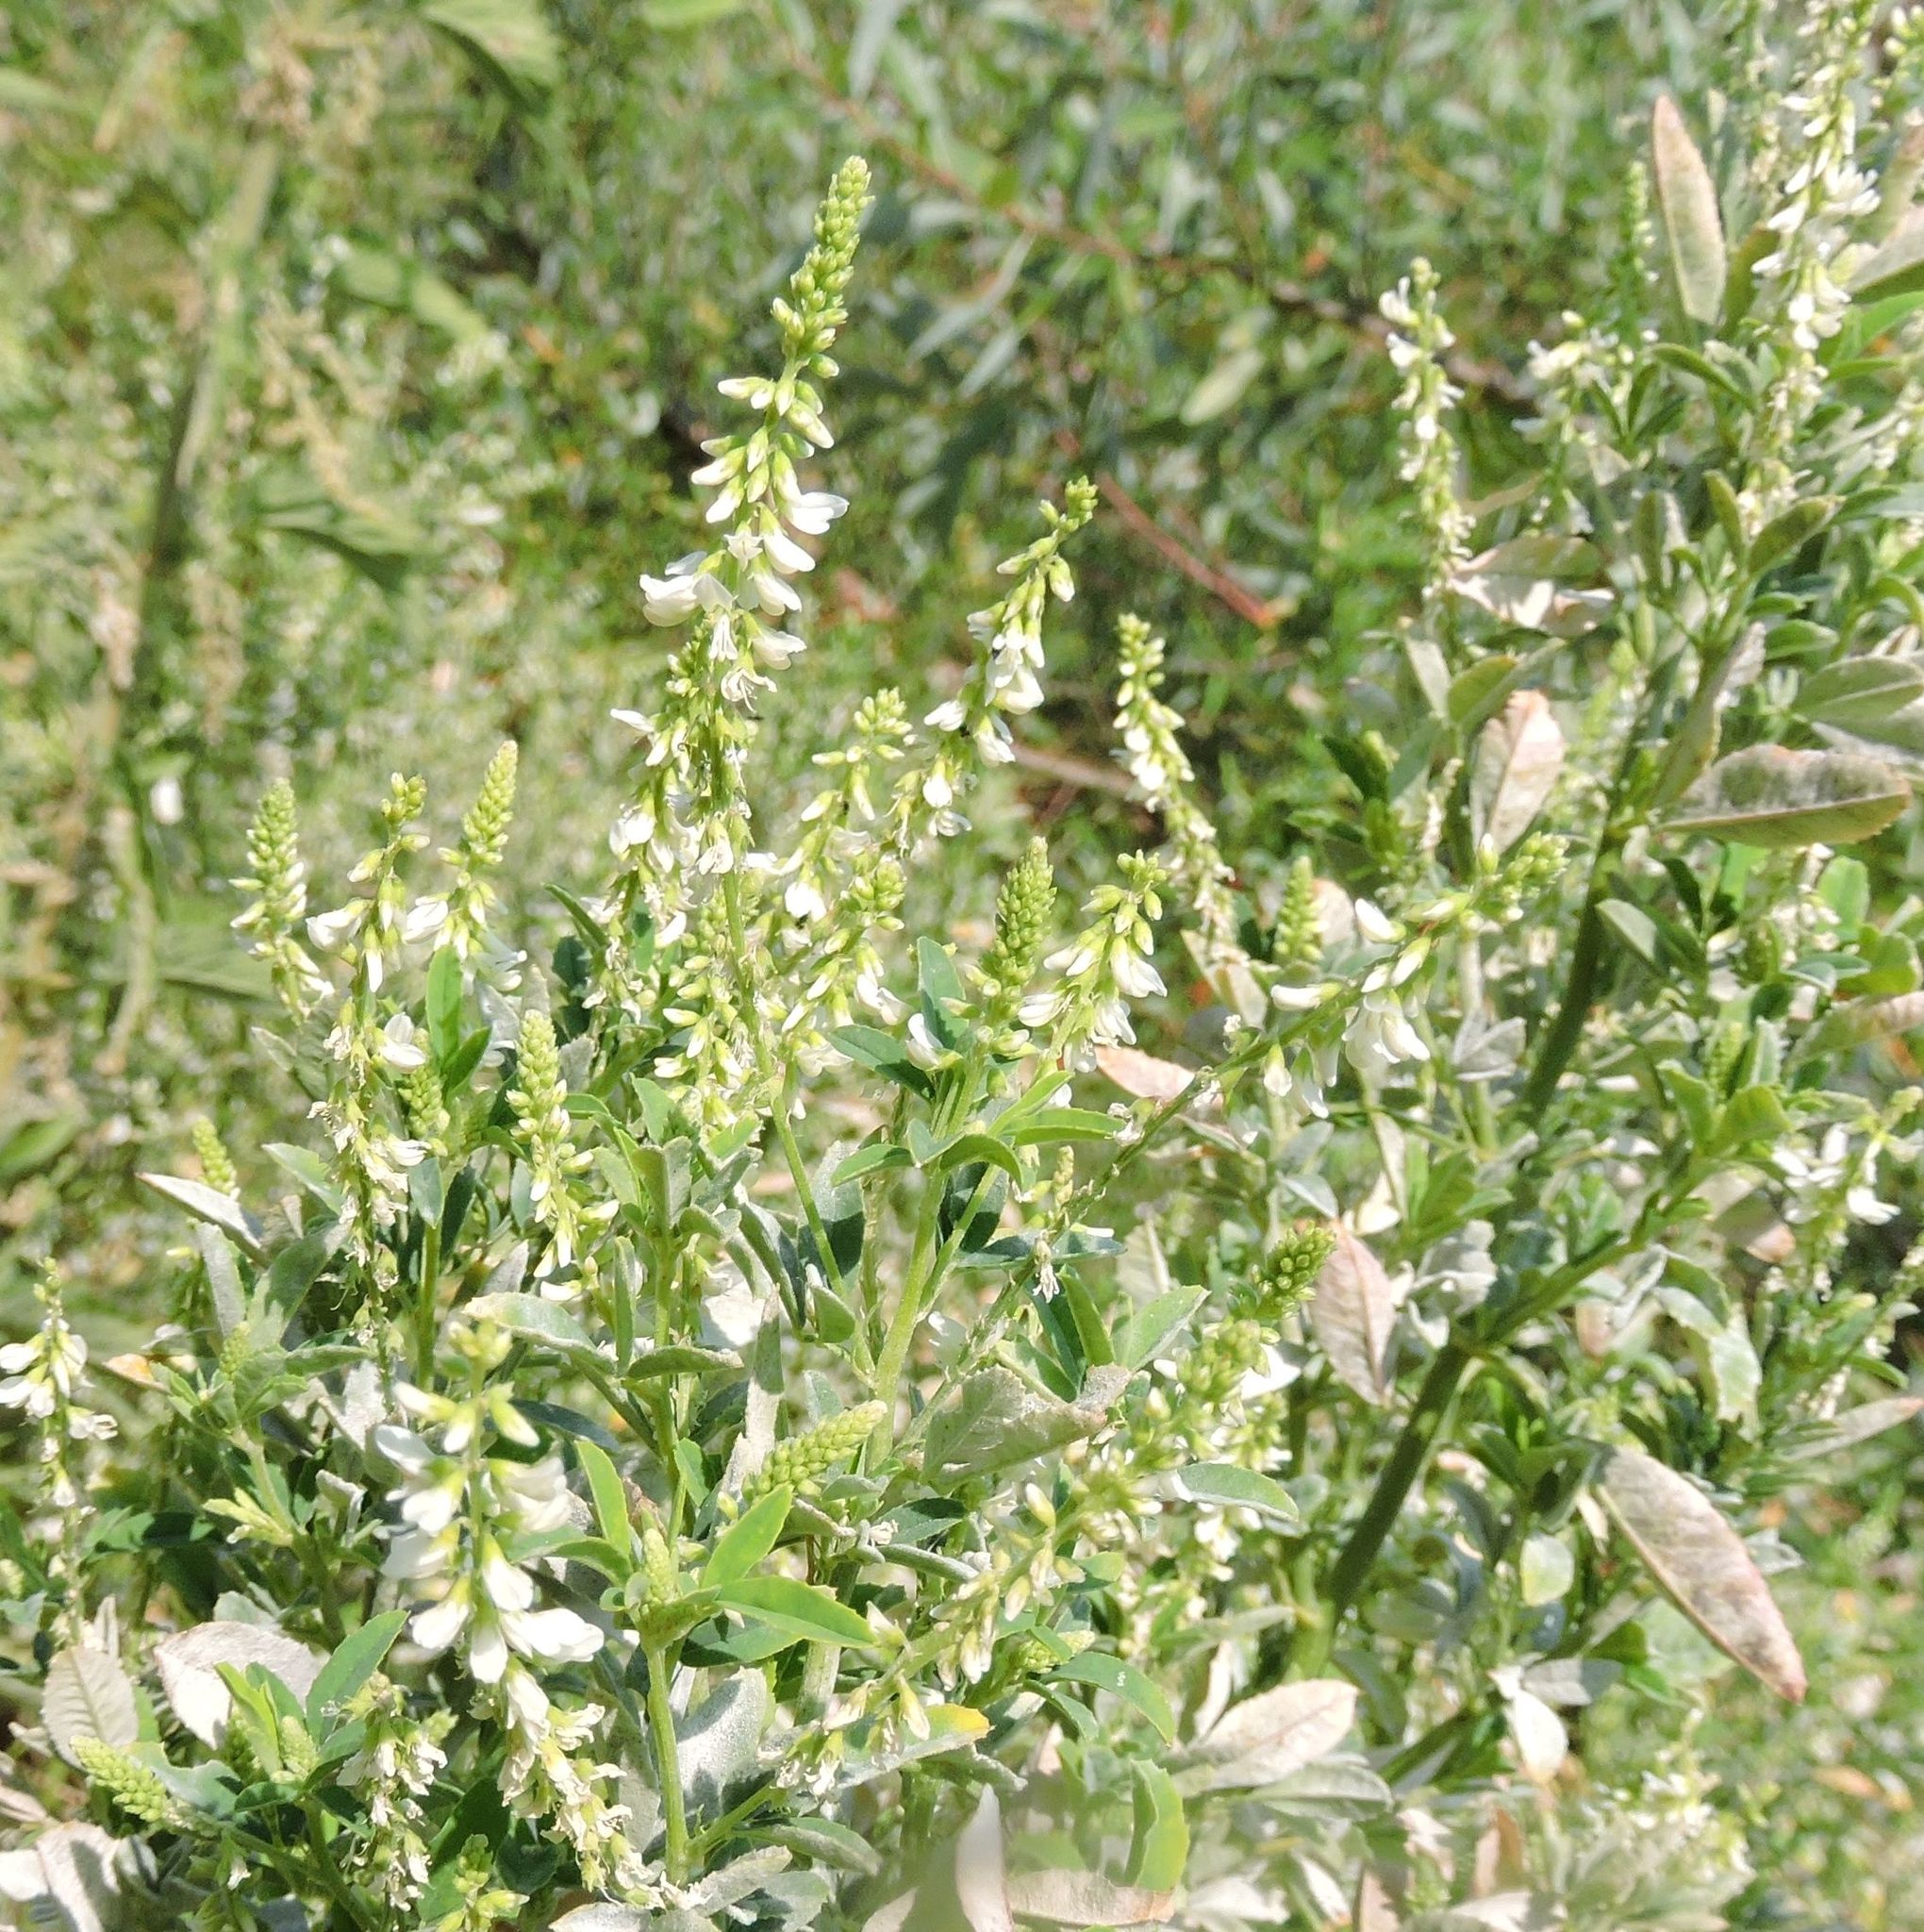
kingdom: Plantae
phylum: Tracheophyta
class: Magnoliopsida
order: Fabales
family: Fabaceae
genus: Melilotus
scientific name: Melilotus albus
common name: White melilot
